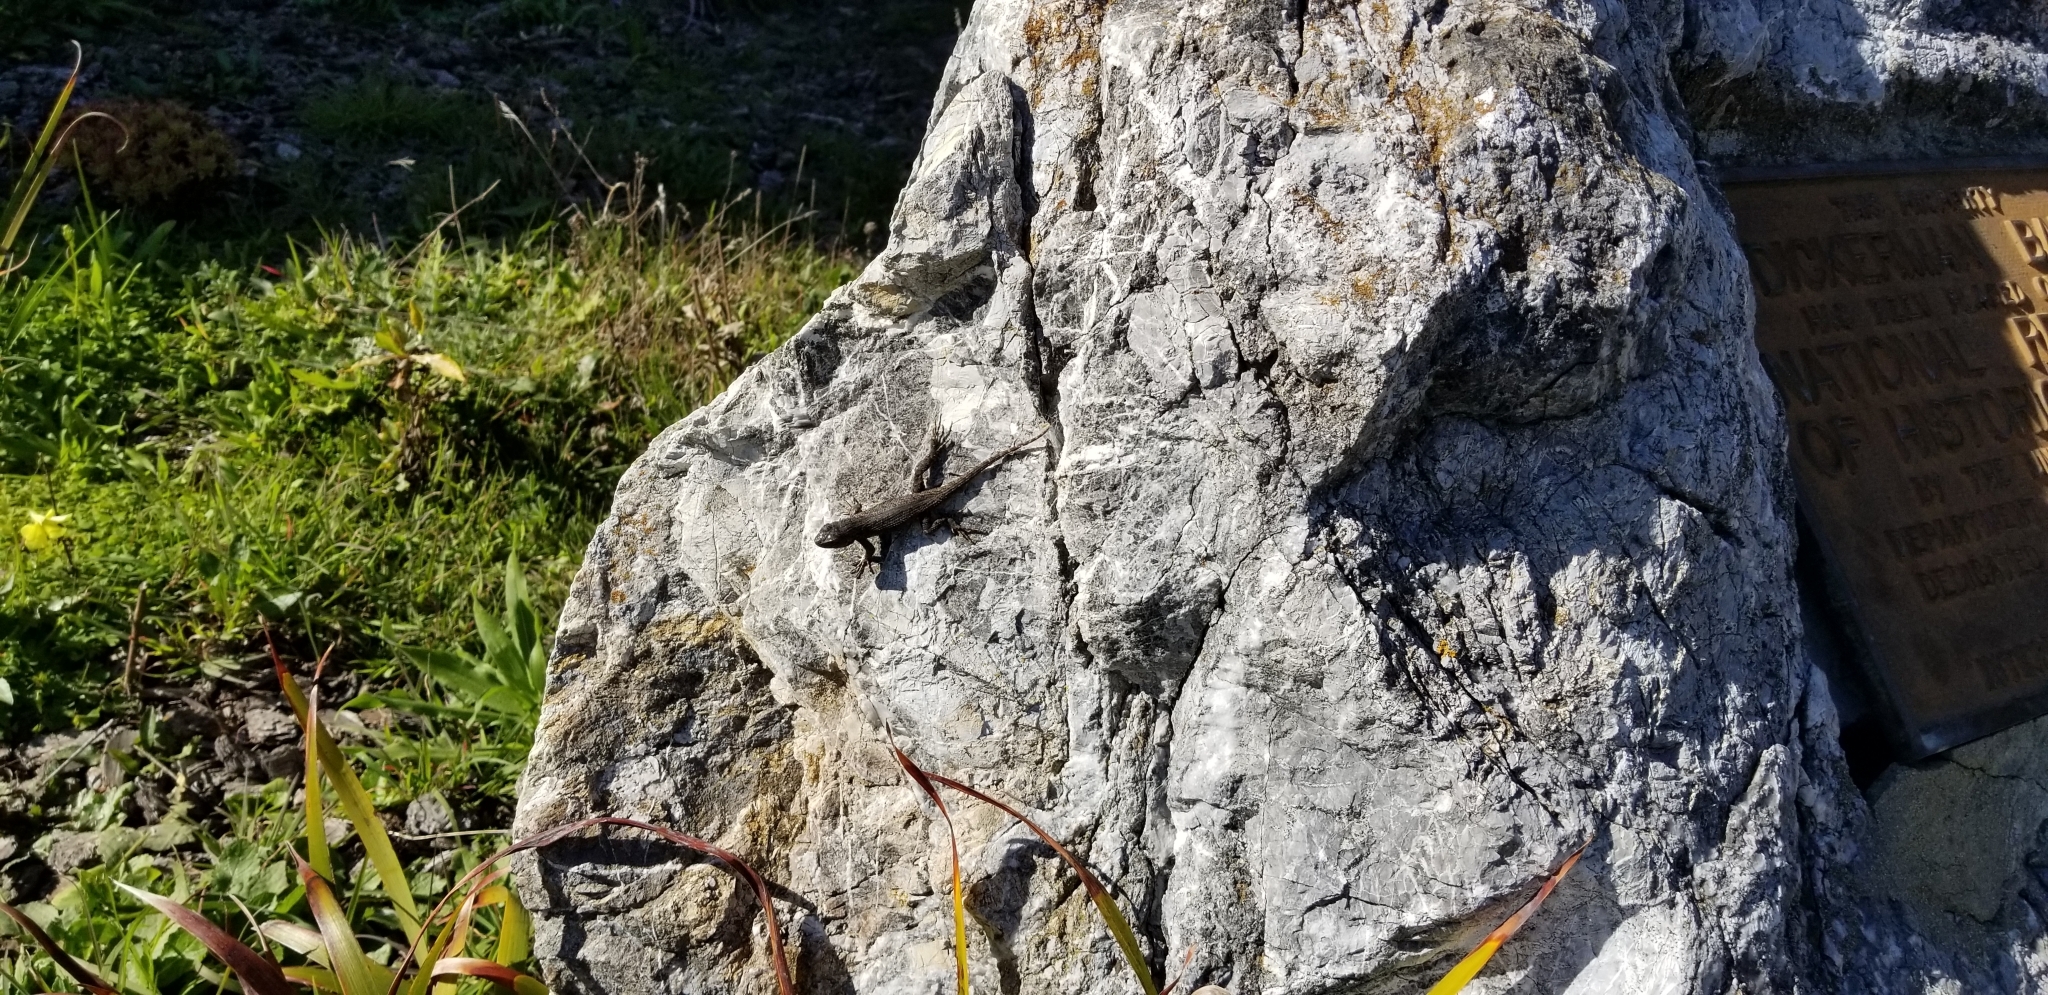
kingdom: Animalia
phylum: Chordata
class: Squamata
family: Phrynosomatidae
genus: Sceloporus
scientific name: Sceloporus occidentalis
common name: Western fence lizard
